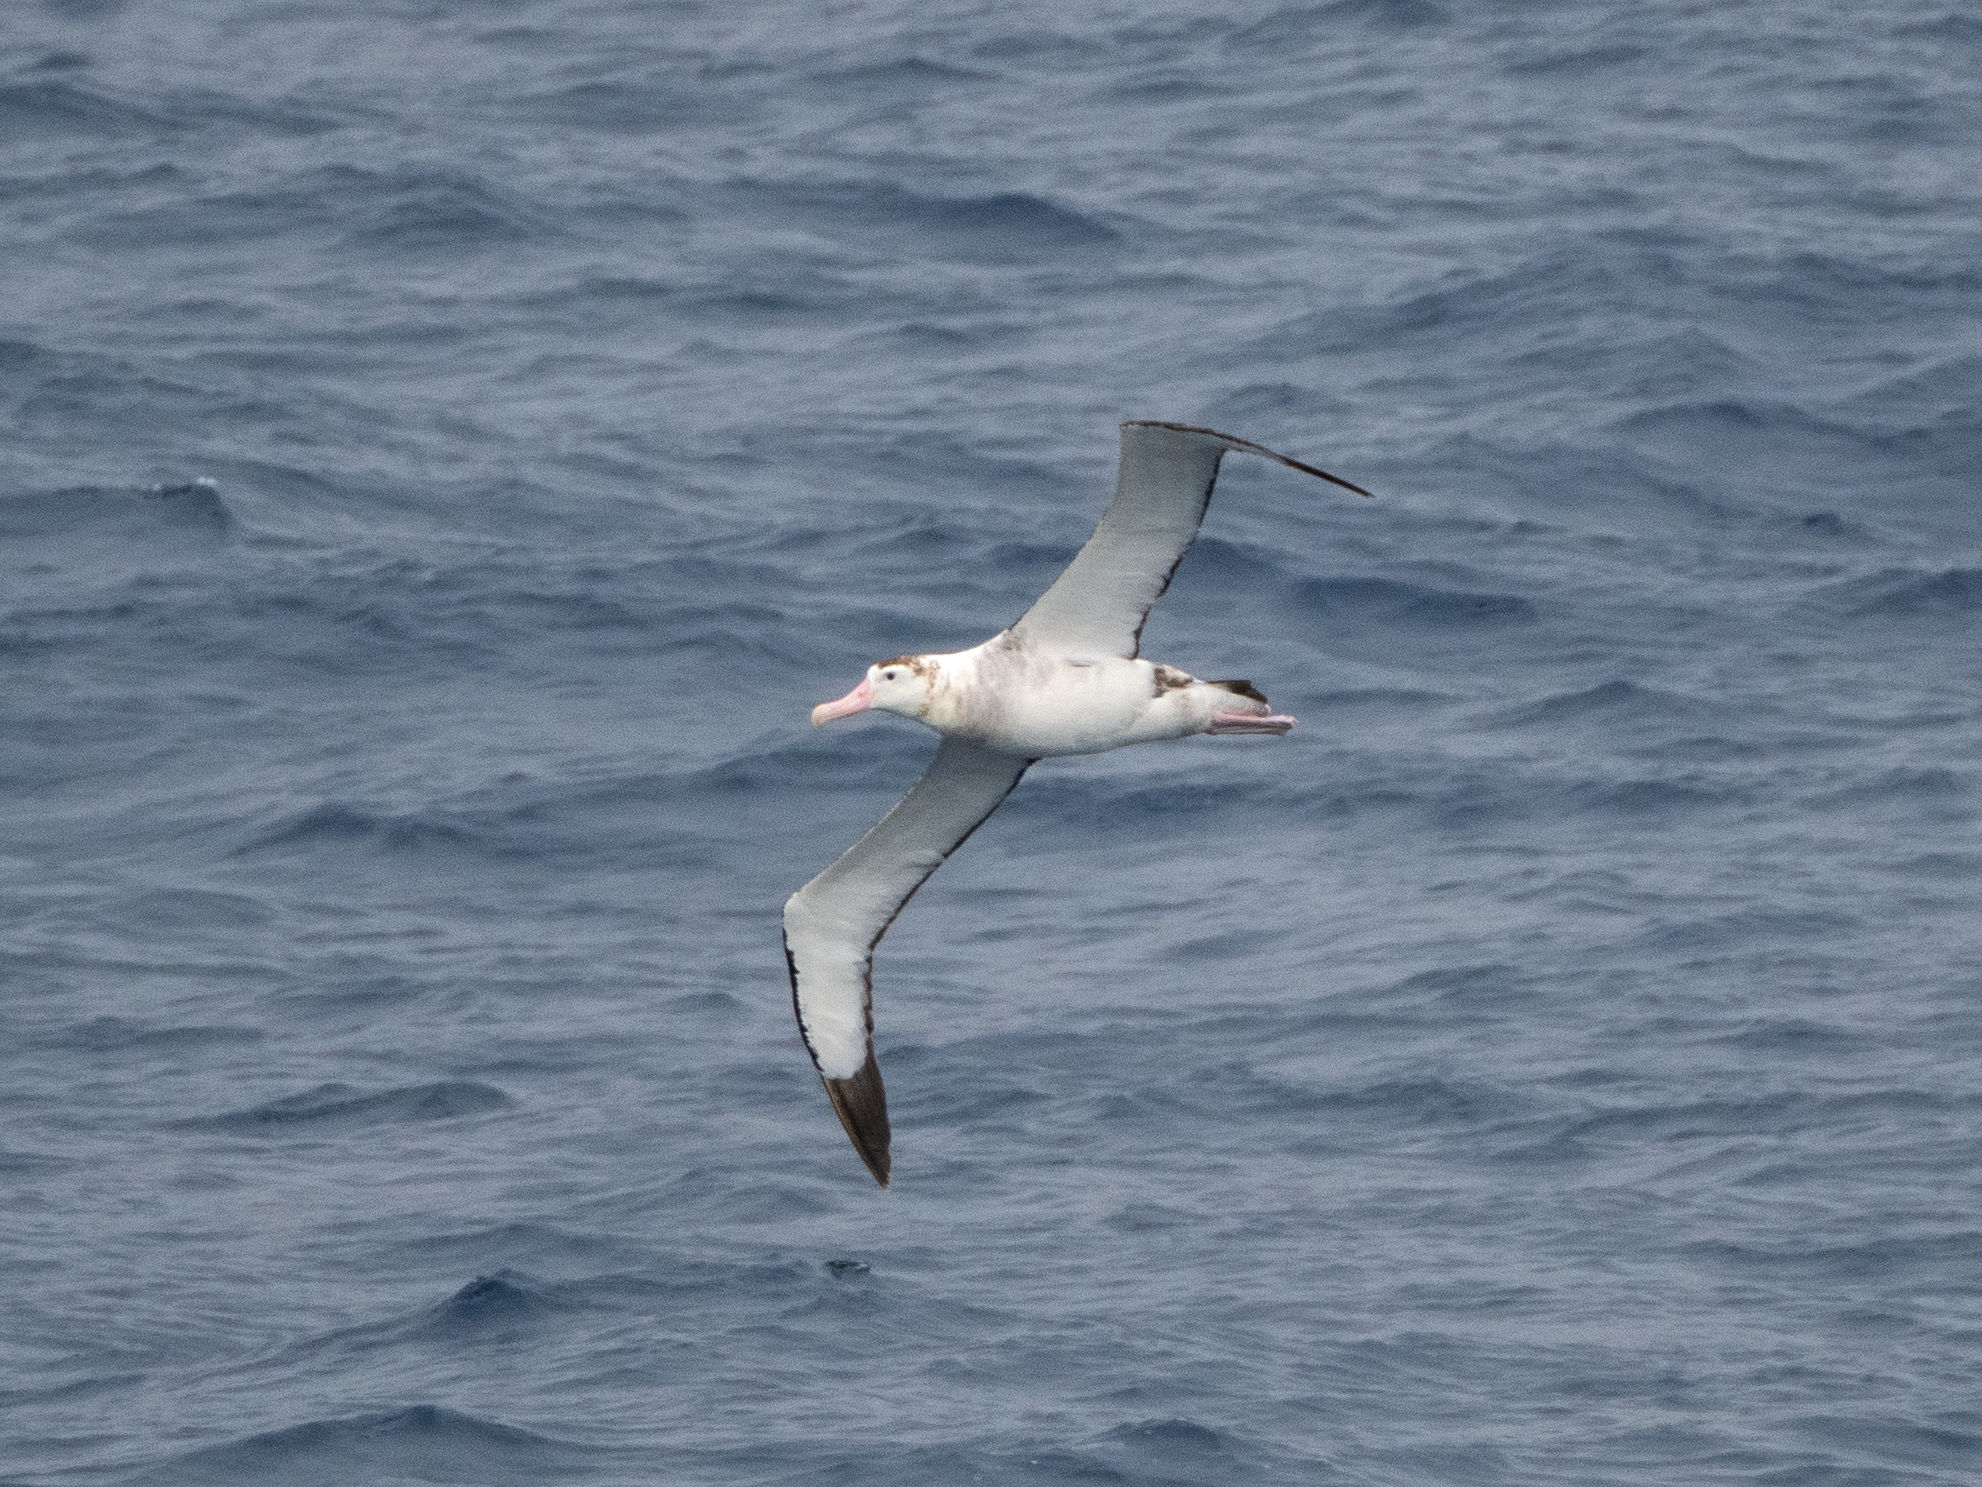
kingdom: Animalia
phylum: Chordata
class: Aves
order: Procellariiformes
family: Diomedeidae
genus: Diomedea
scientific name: Diomedea antipodensis
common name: Antipodean albatross
